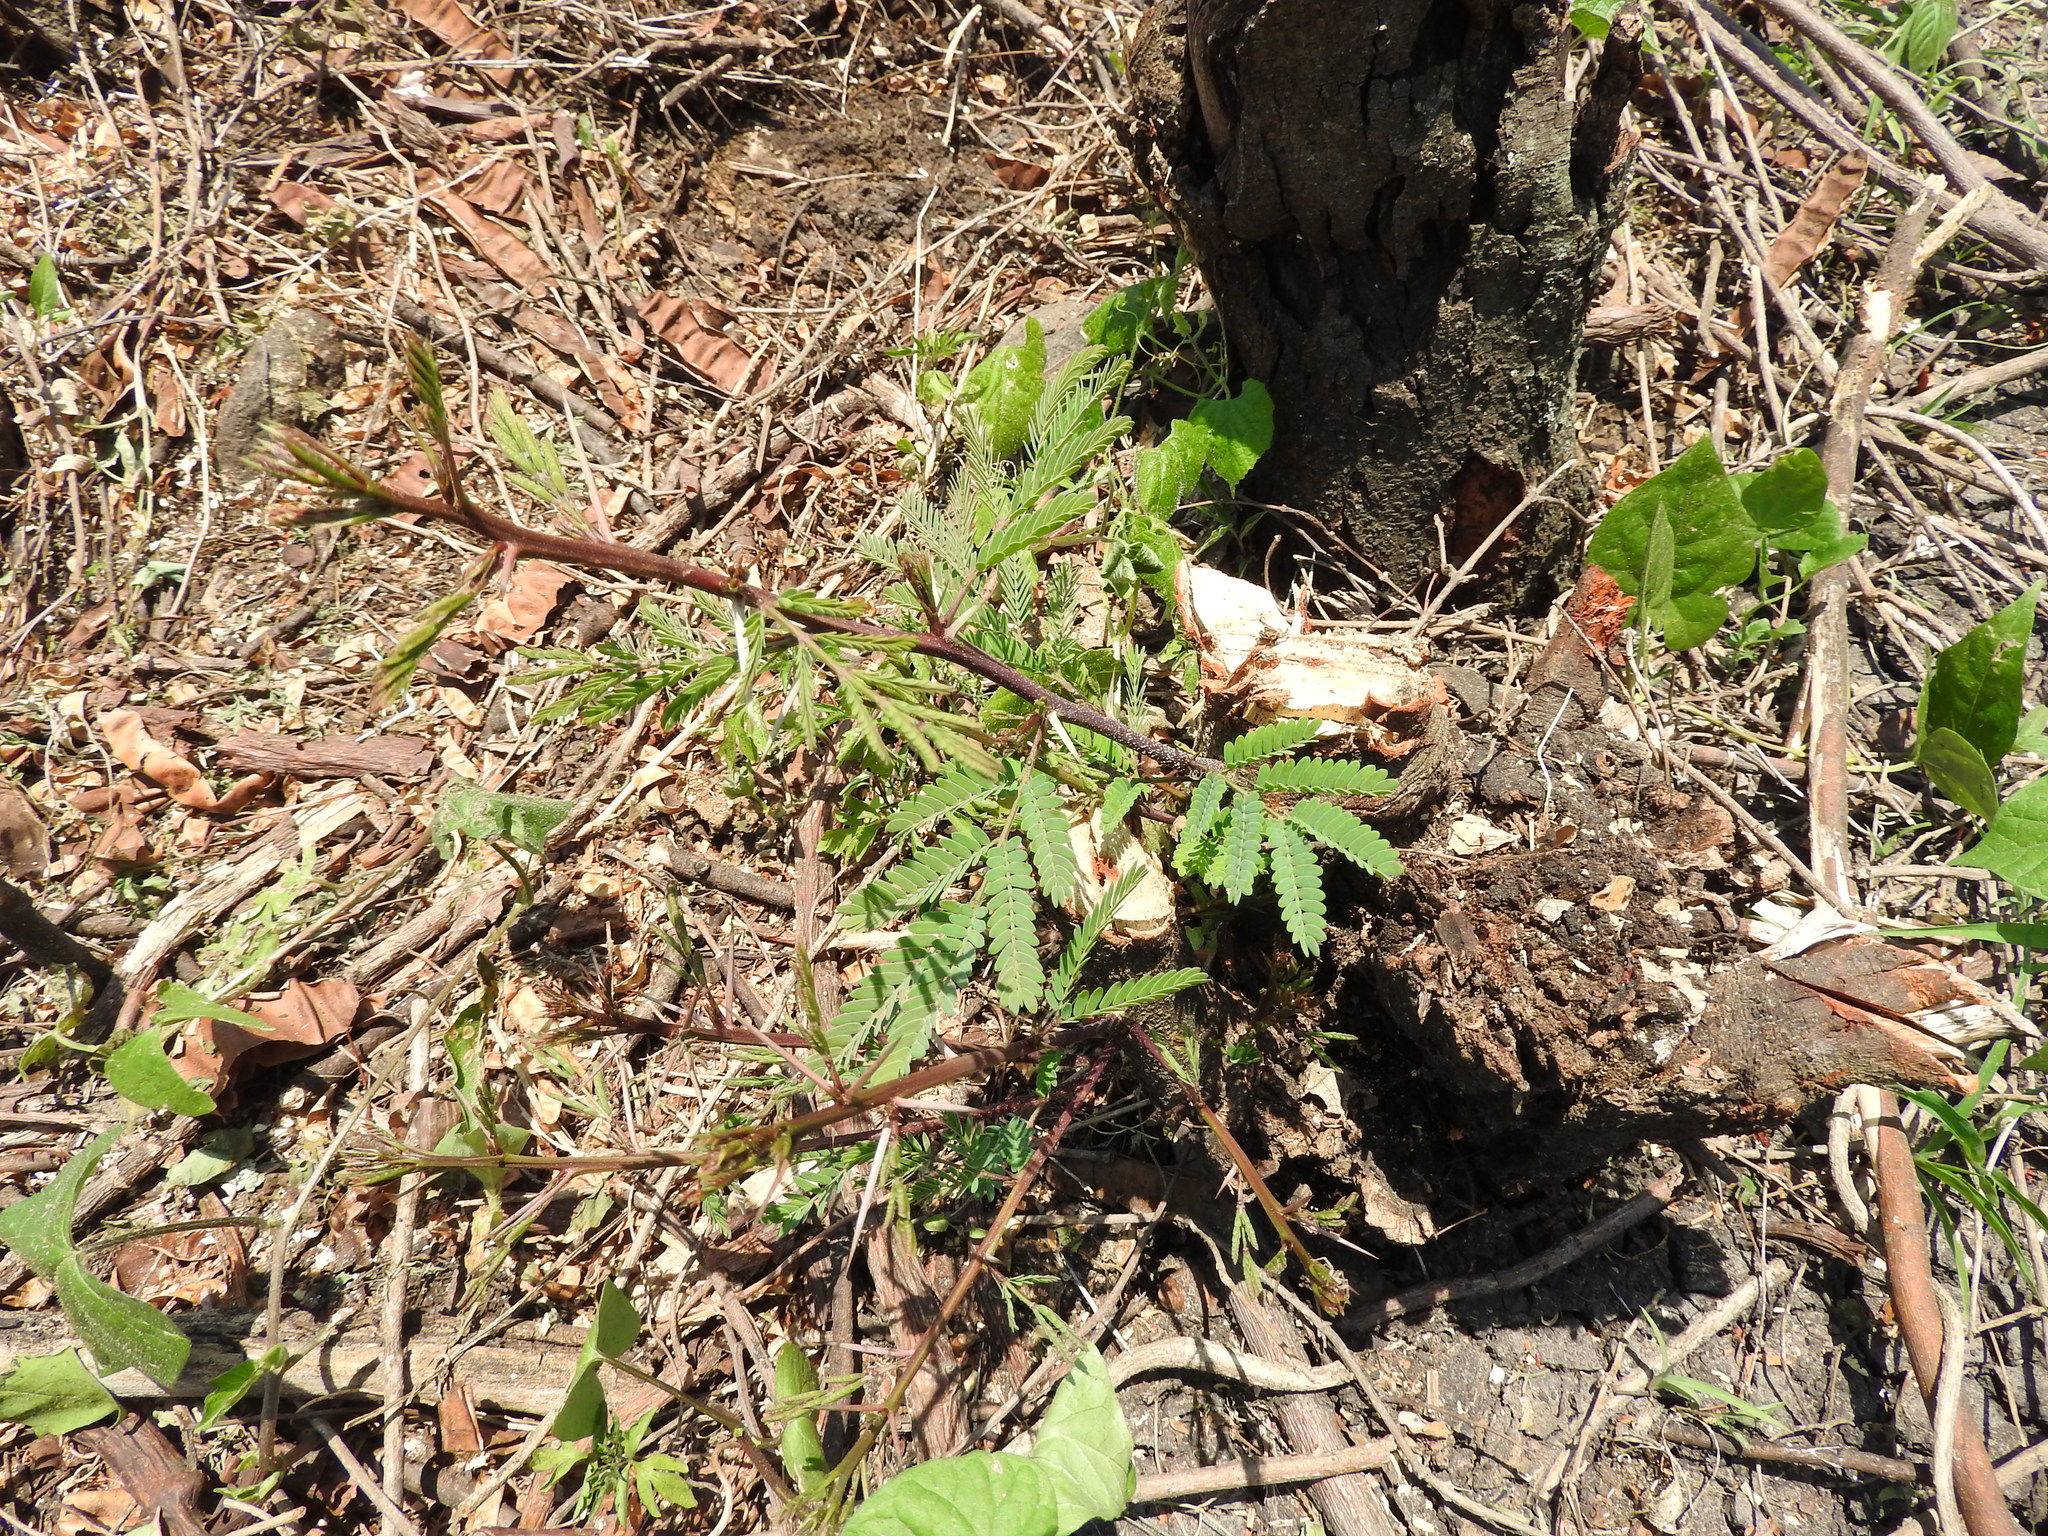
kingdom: Plantae
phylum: Tracheophyta
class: Magnoliopsida
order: Fabales
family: Fabaceae
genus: Vachellia
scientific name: Vachellia farnesiana
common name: Sweet acacia
